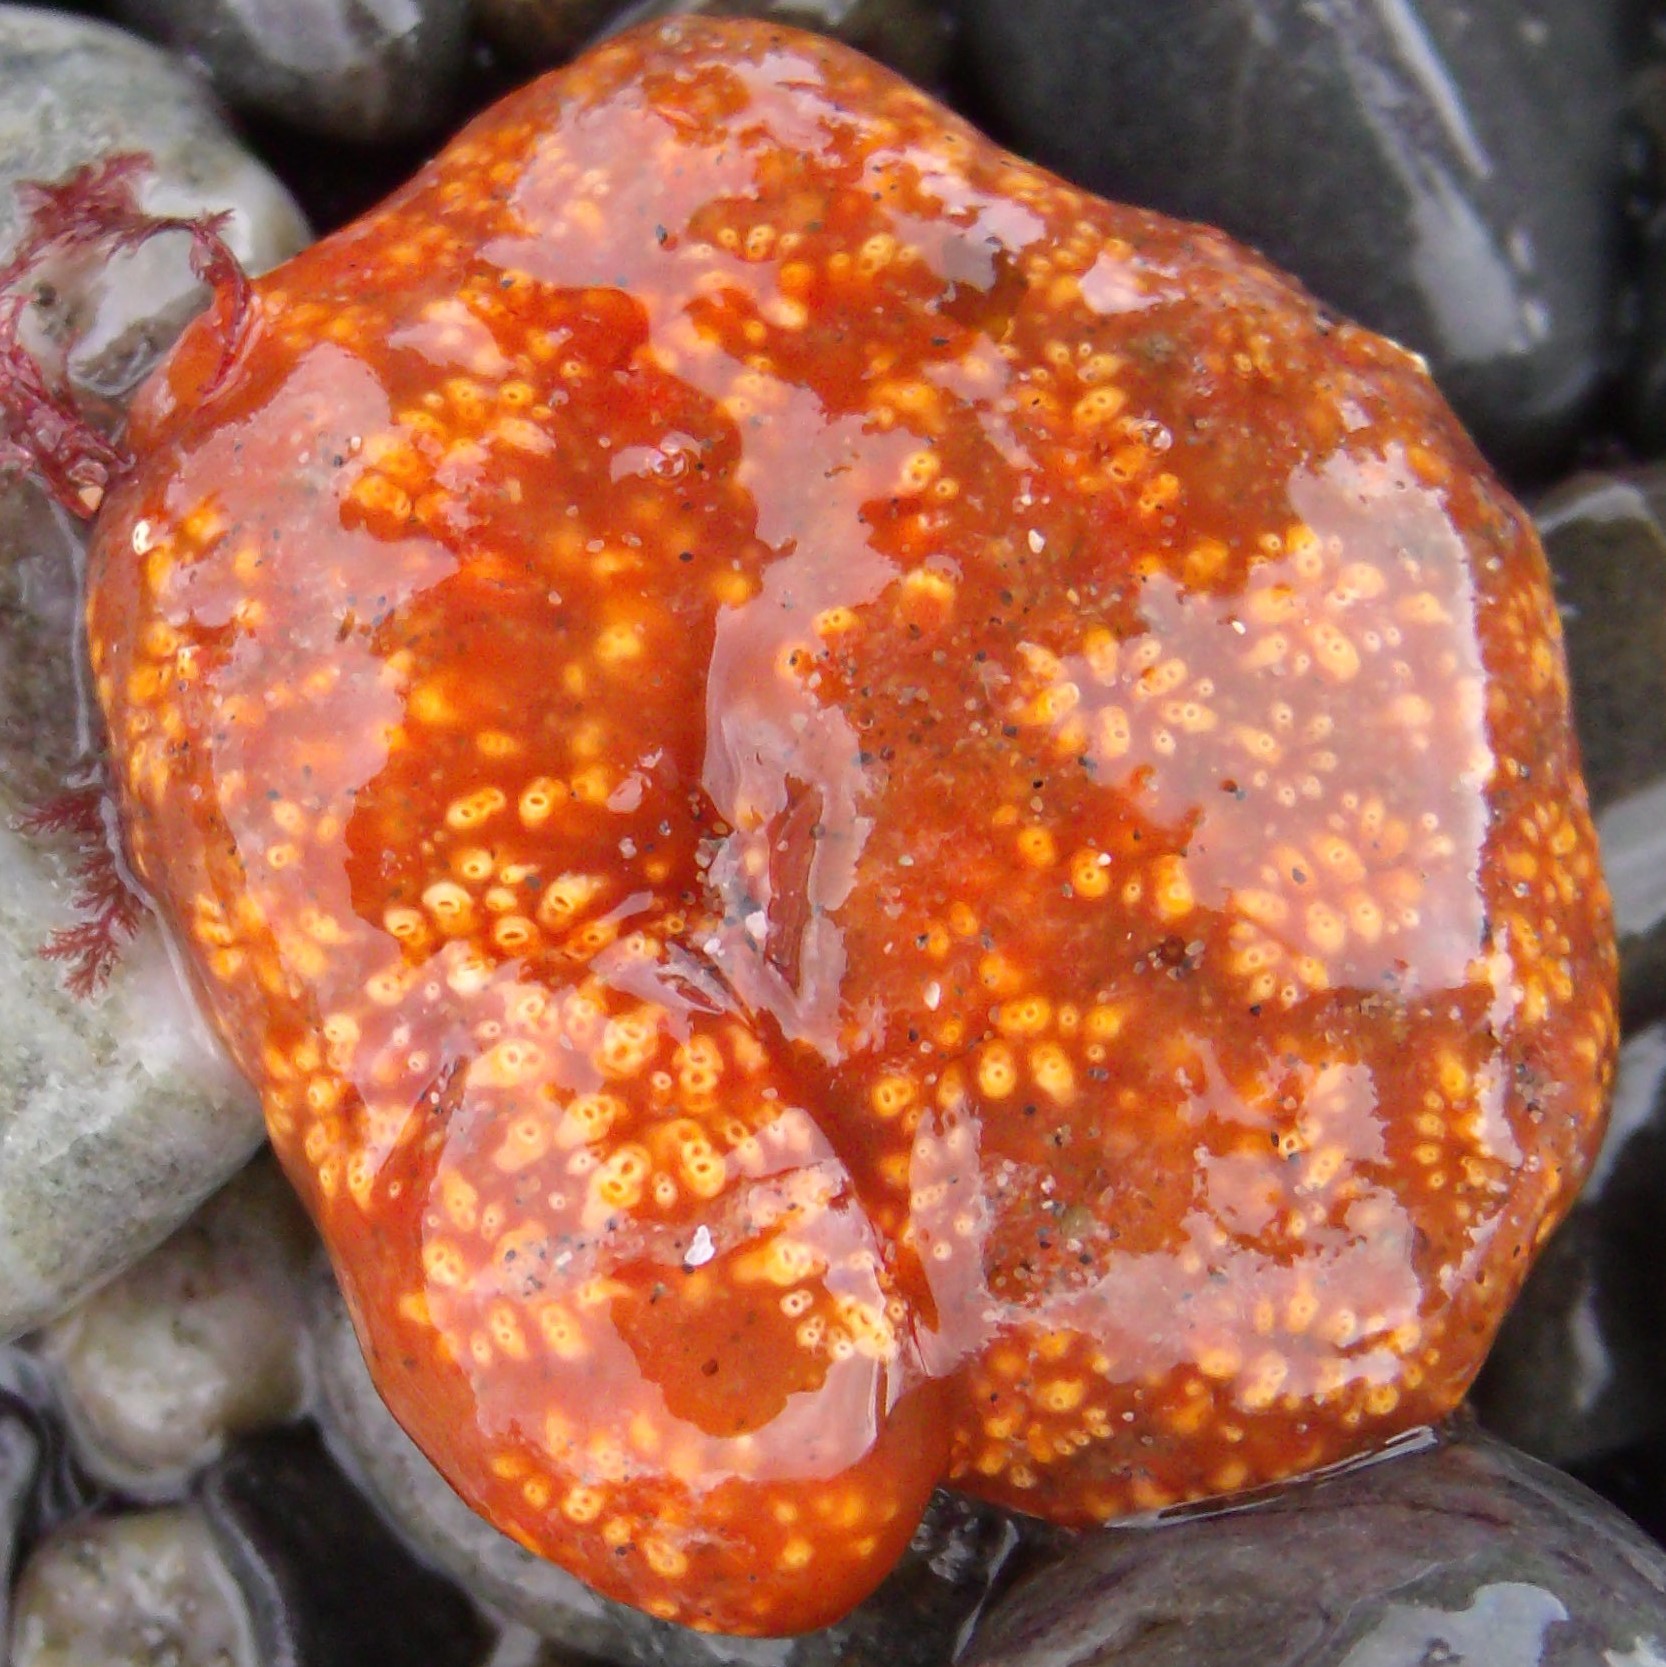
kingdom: Animalia
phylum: Chordata
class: Ascidiacea
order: Aplousobranchia
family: Polyclinidae
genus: Aplidium
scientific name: Aplidium benhami
